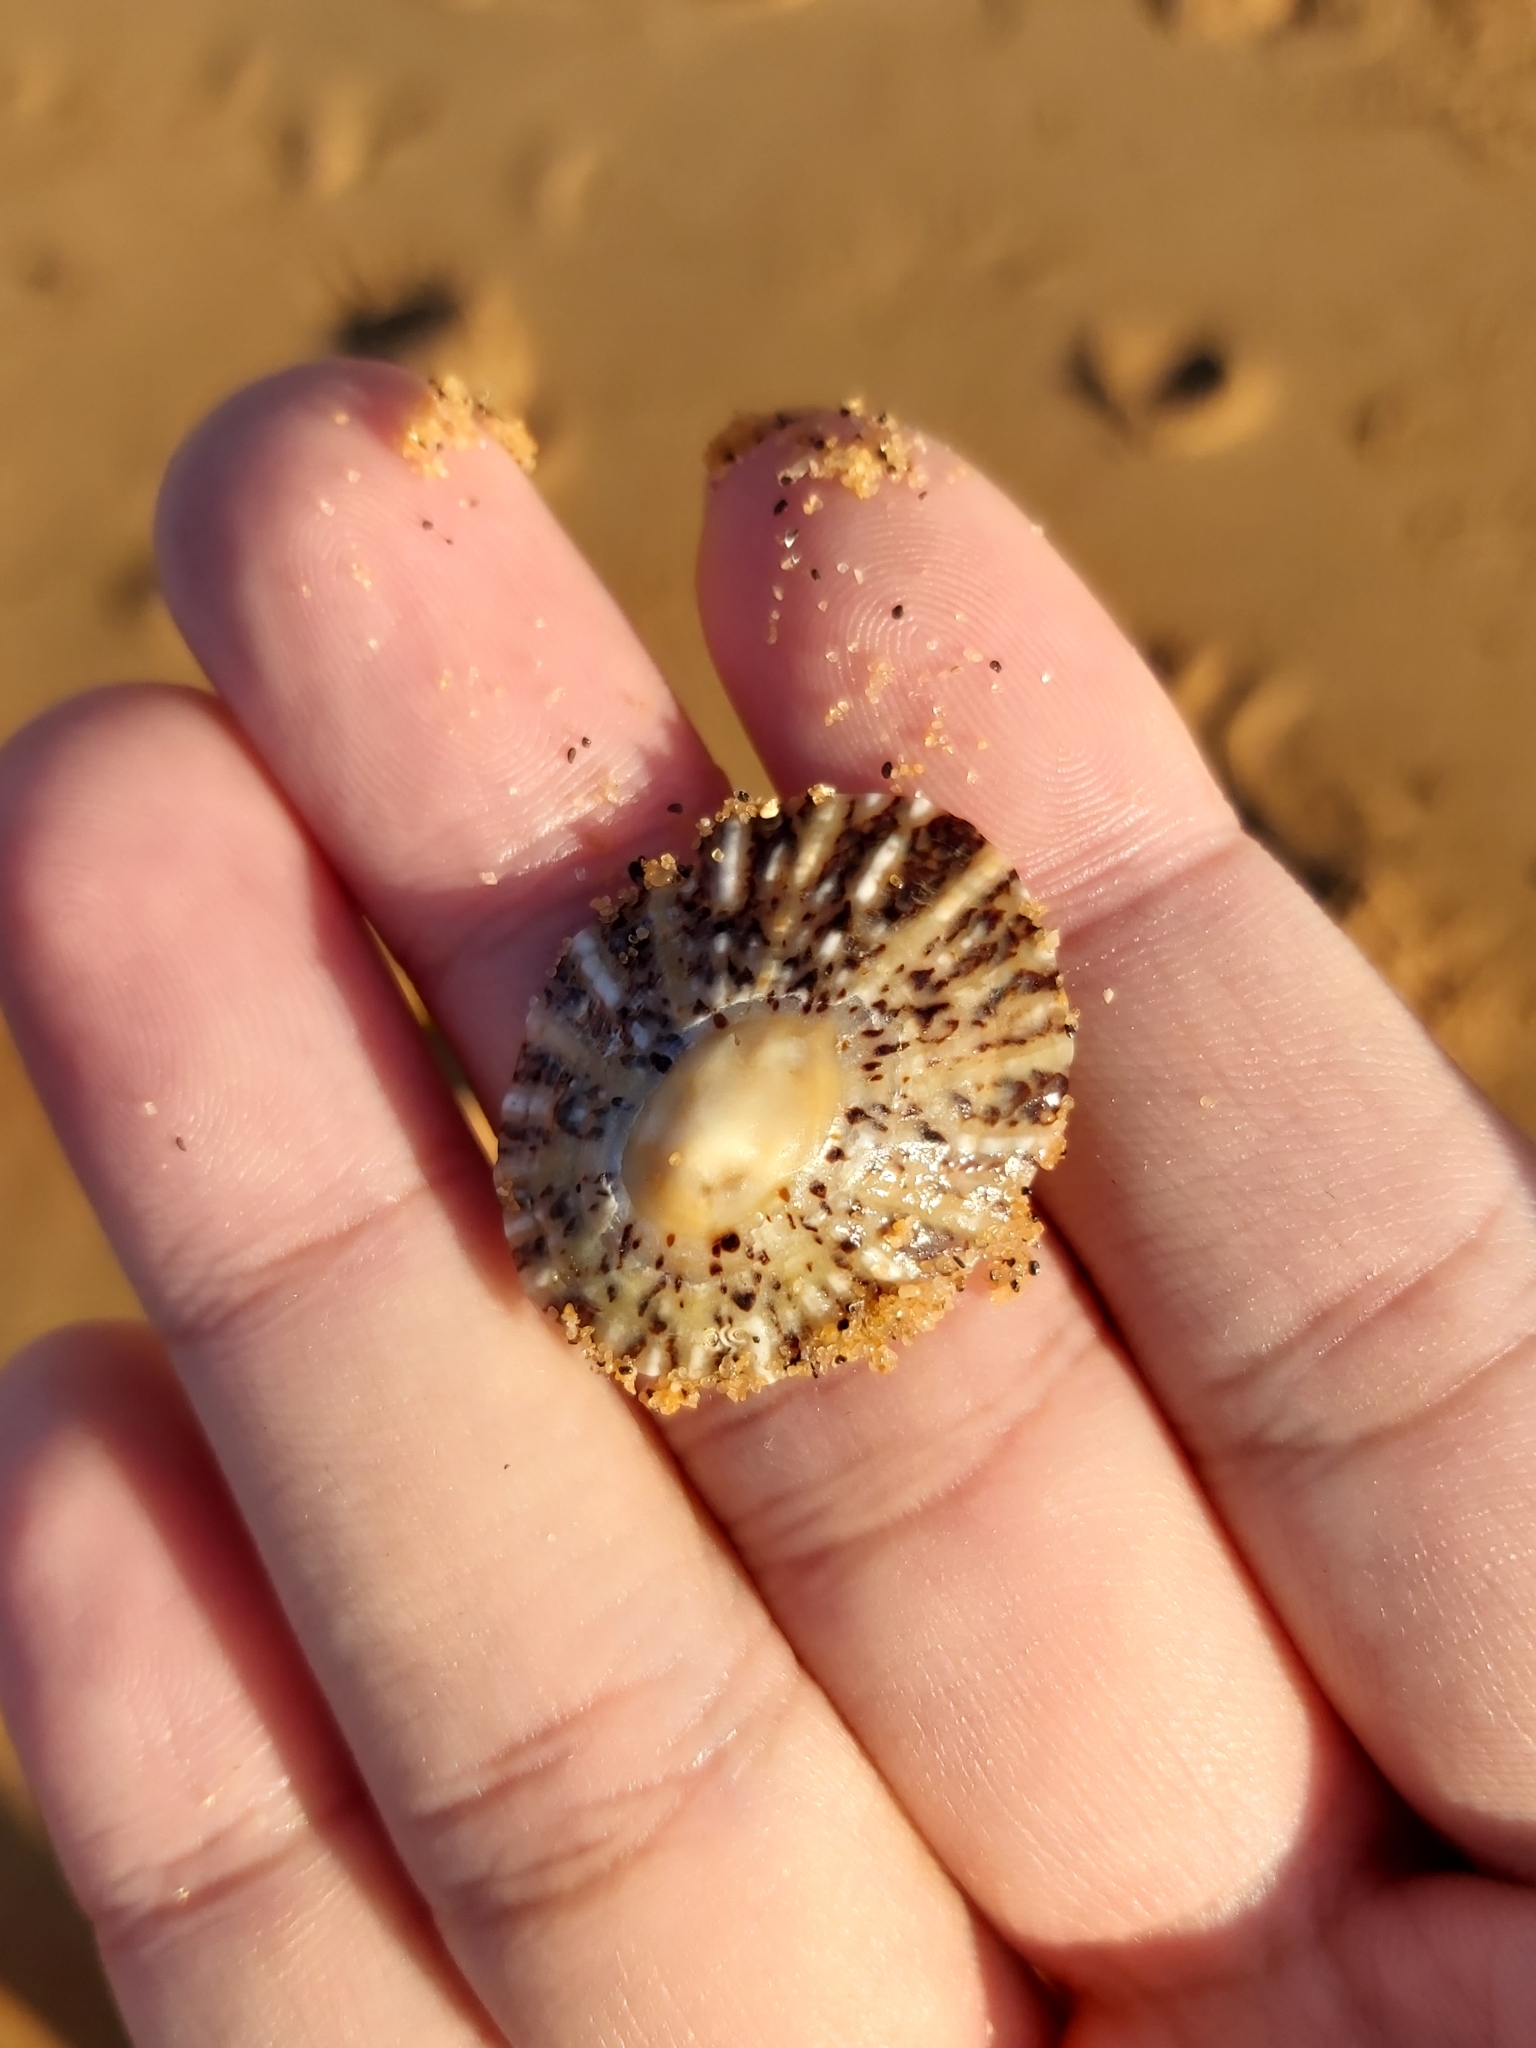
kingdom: Animalia
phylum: Mollusca
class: Gastropoda
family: Nacellidae
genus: Cellana
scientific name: Cellana tramoserica
